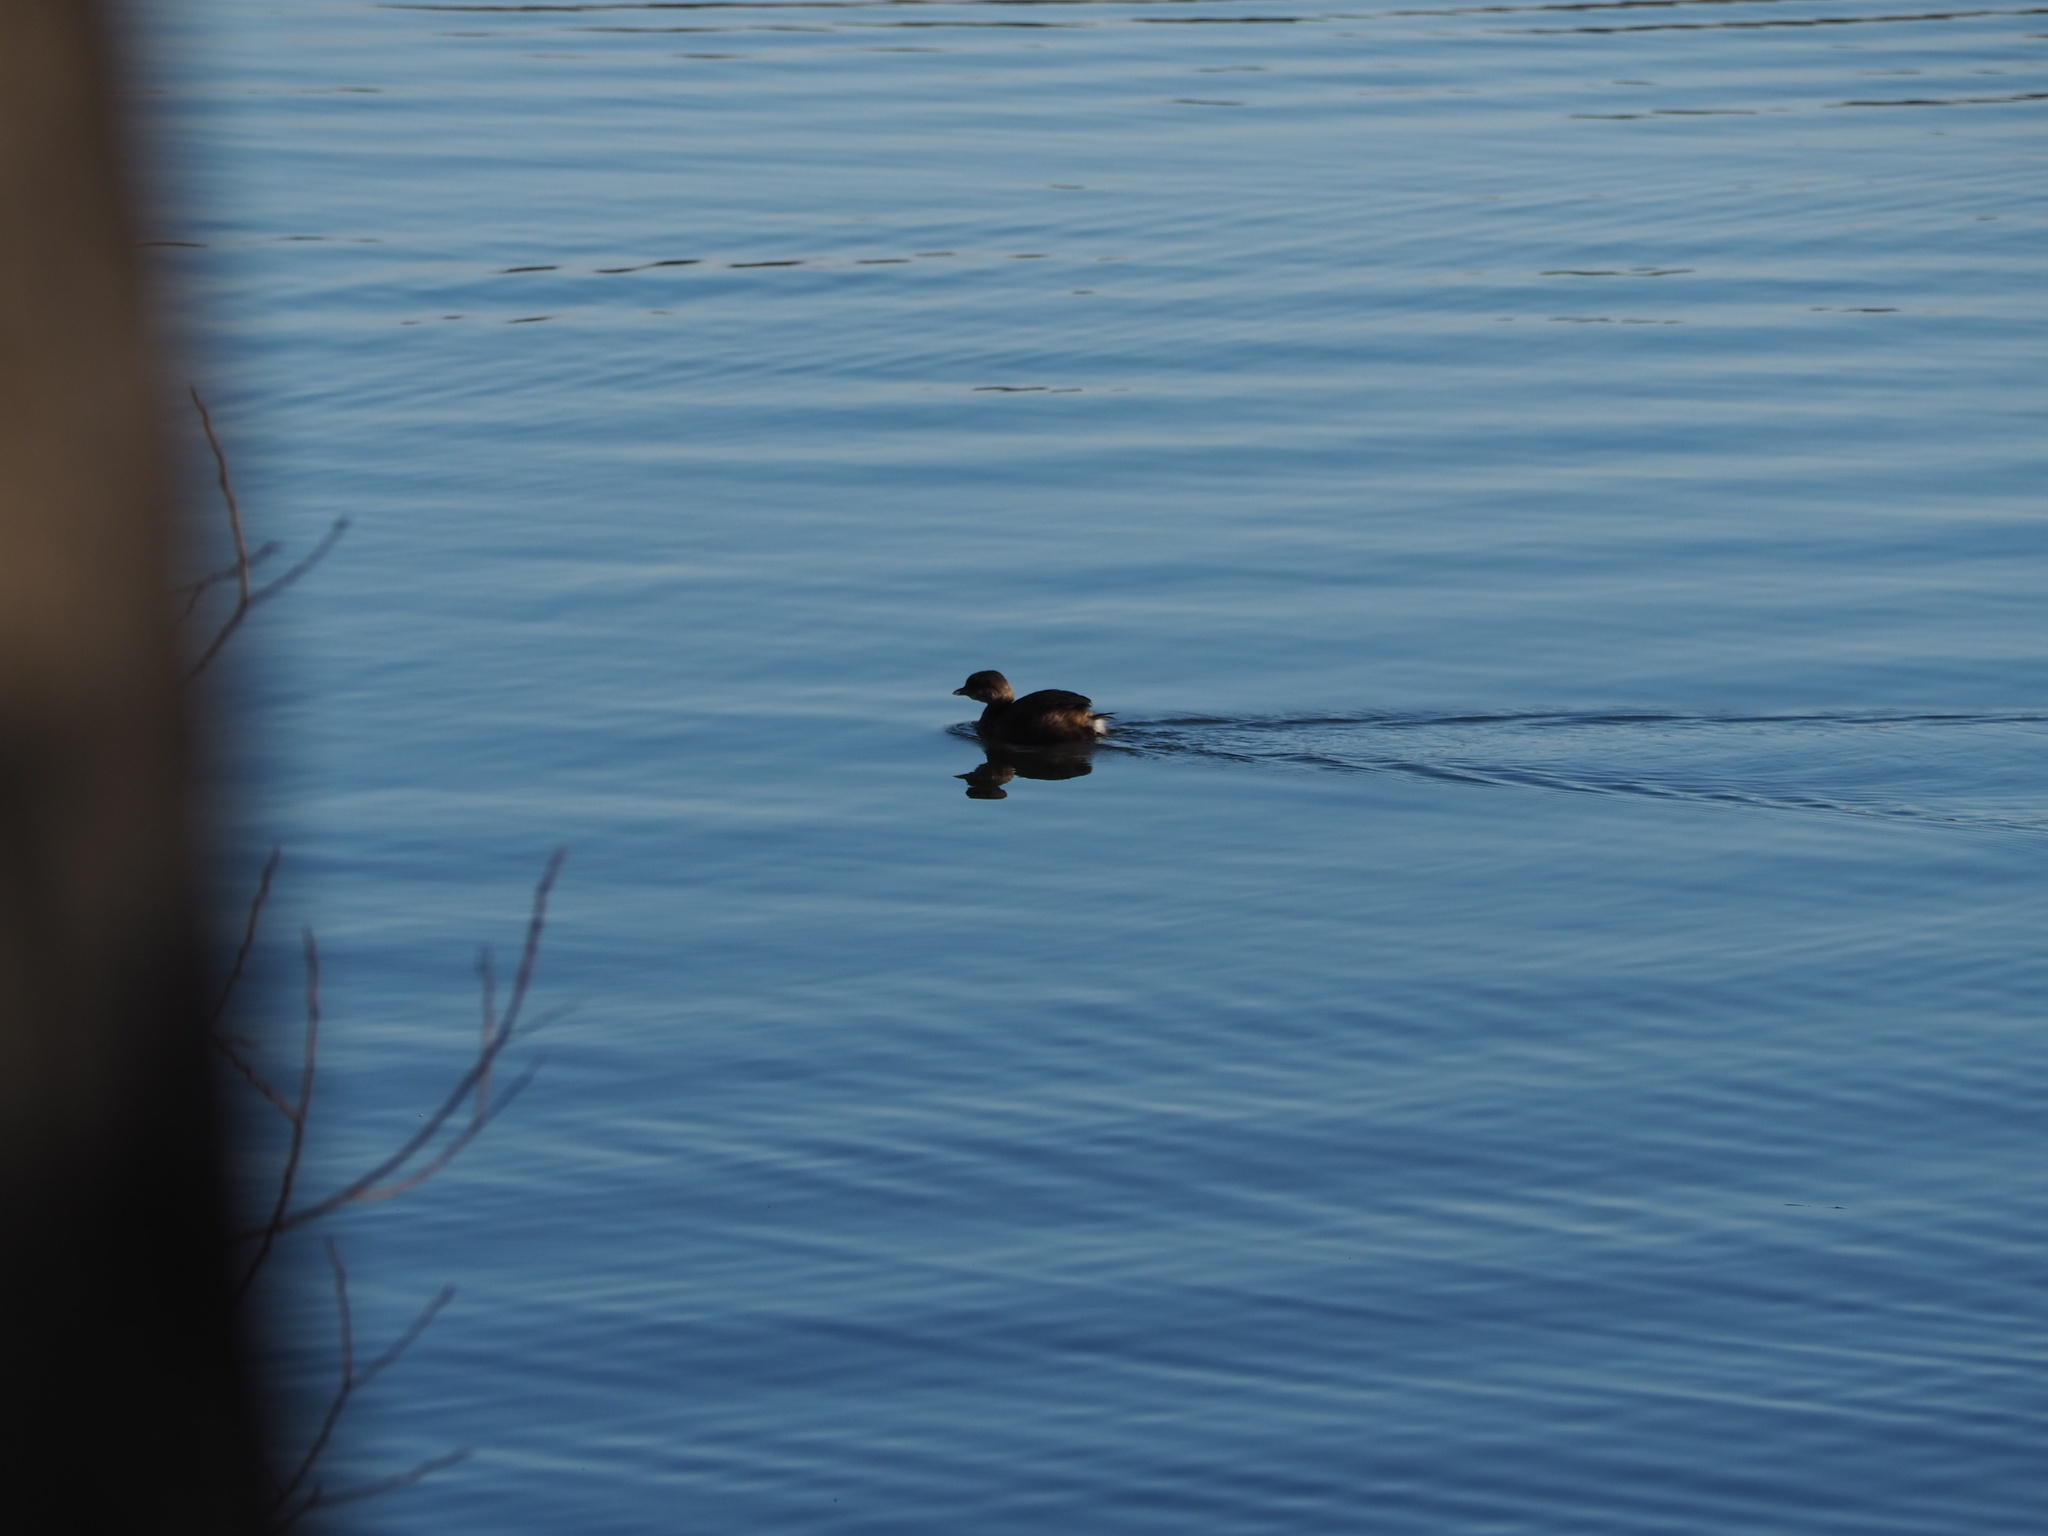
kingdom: Animalia
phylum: Chordata
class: Aves
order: Podicipediformes
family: Podicipedidae
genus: Podilymbus
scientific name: Podilymbus podiceps
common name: Pied-billed grebe
